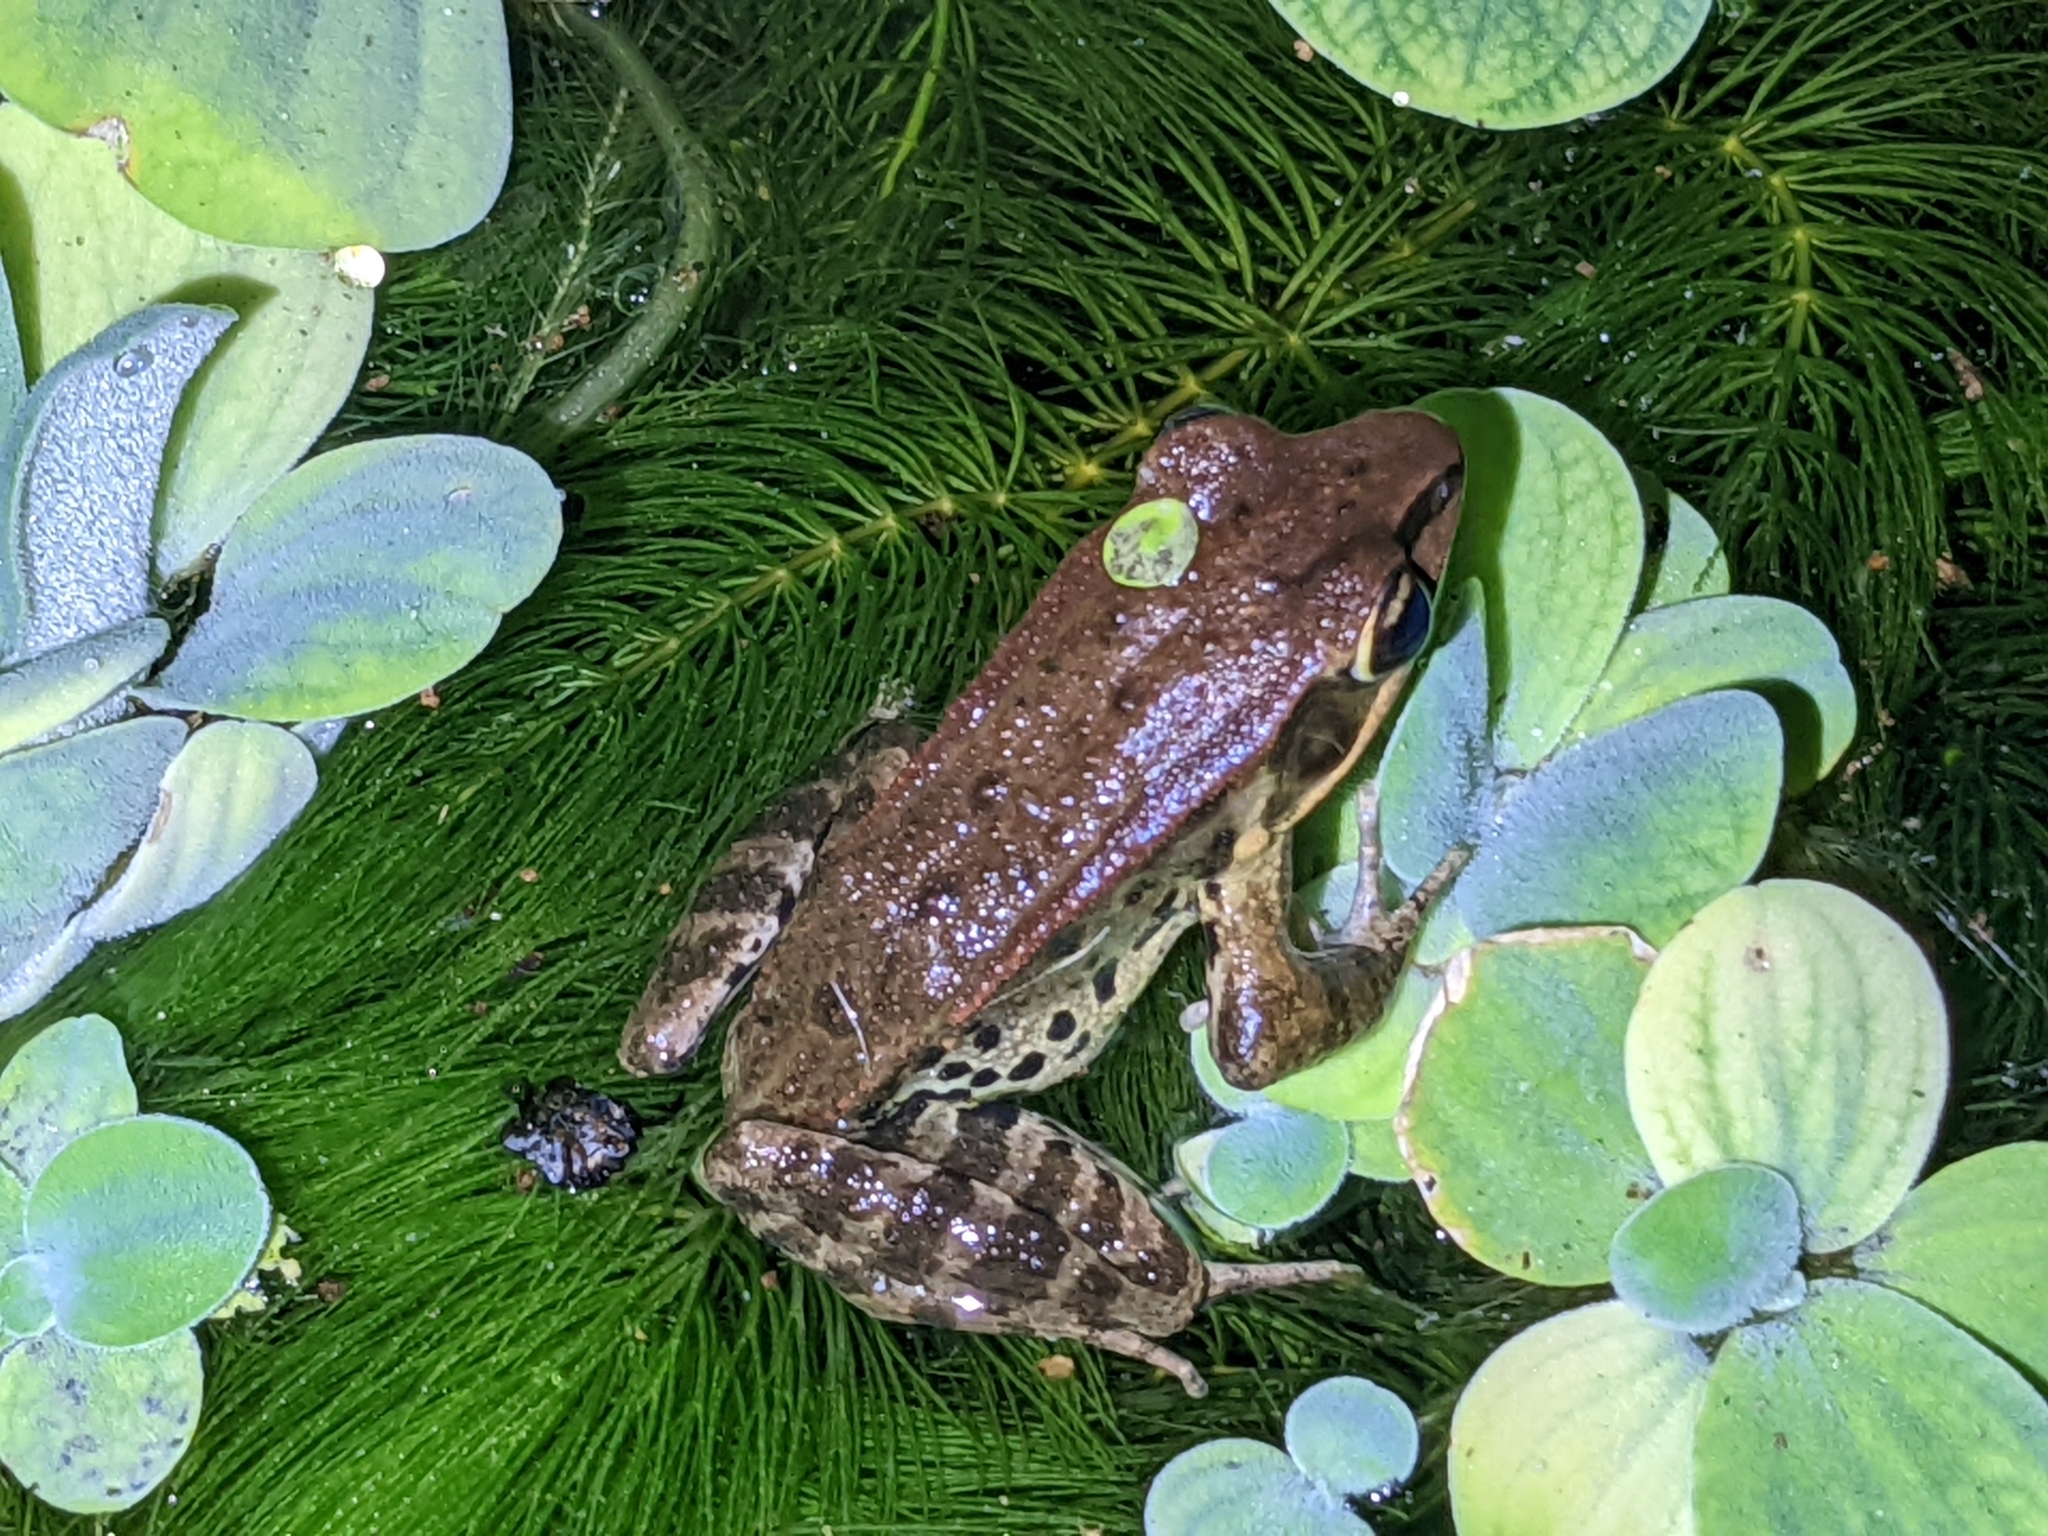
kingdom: Animalia
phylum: Chordata
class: Amphibia
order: Anura
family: Ranidae
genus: Hylarana
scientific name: Hylarana latouchii
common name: Broad-folded frog
